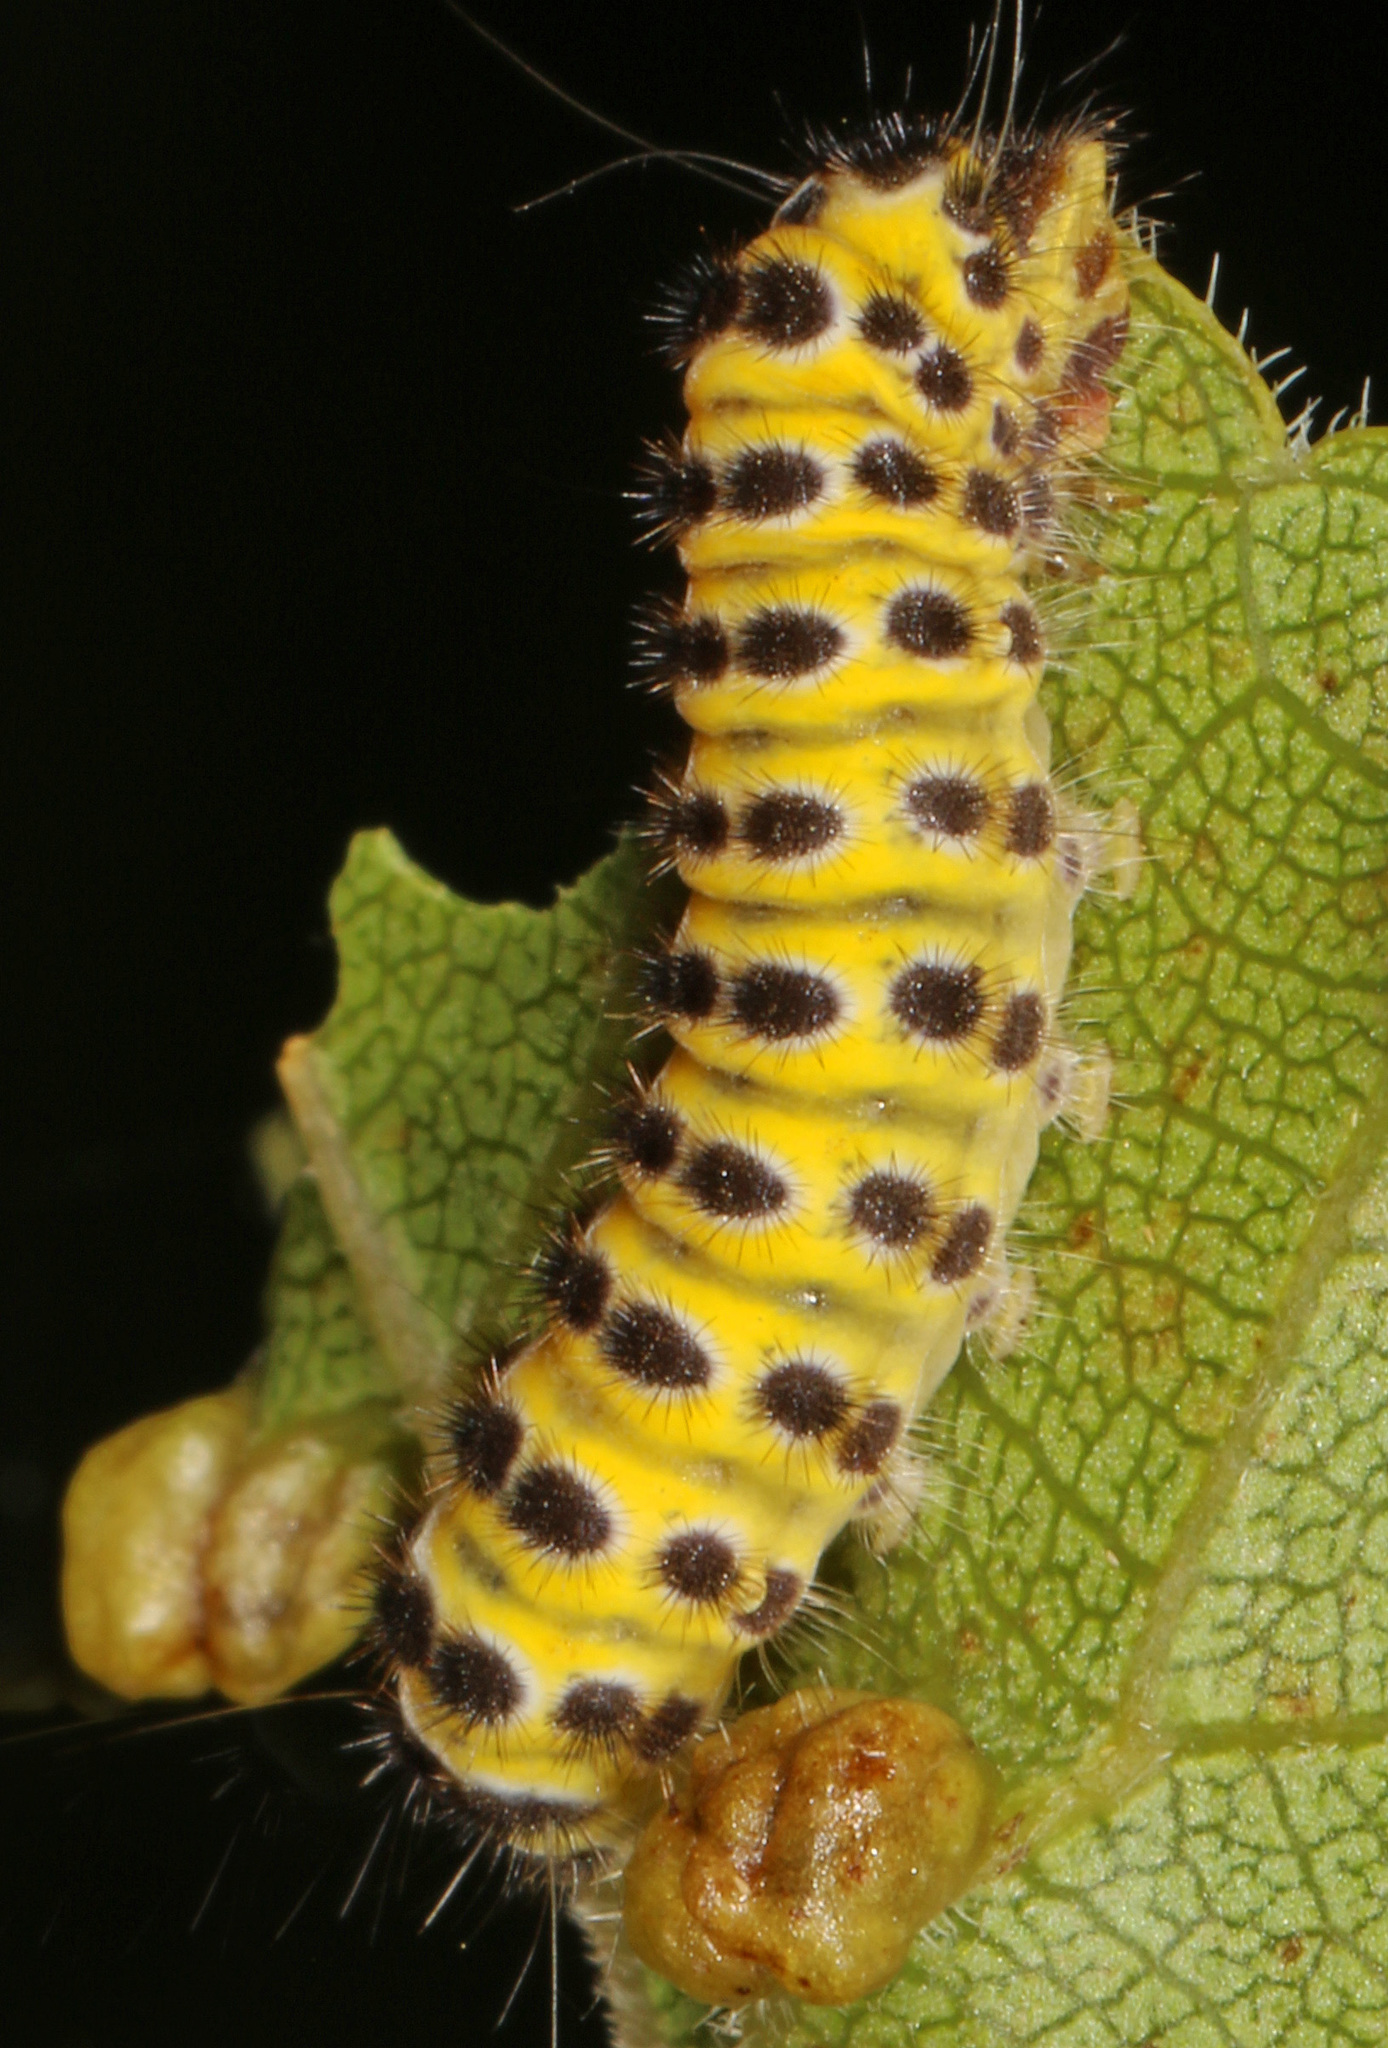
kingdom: Animalia
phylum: Arthropoda
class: Insecta
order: Lepidoptera
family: Zygaenidae
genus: Harrisina
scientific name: Harrisina americana
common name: Grapeleaf skeletonizer moth
